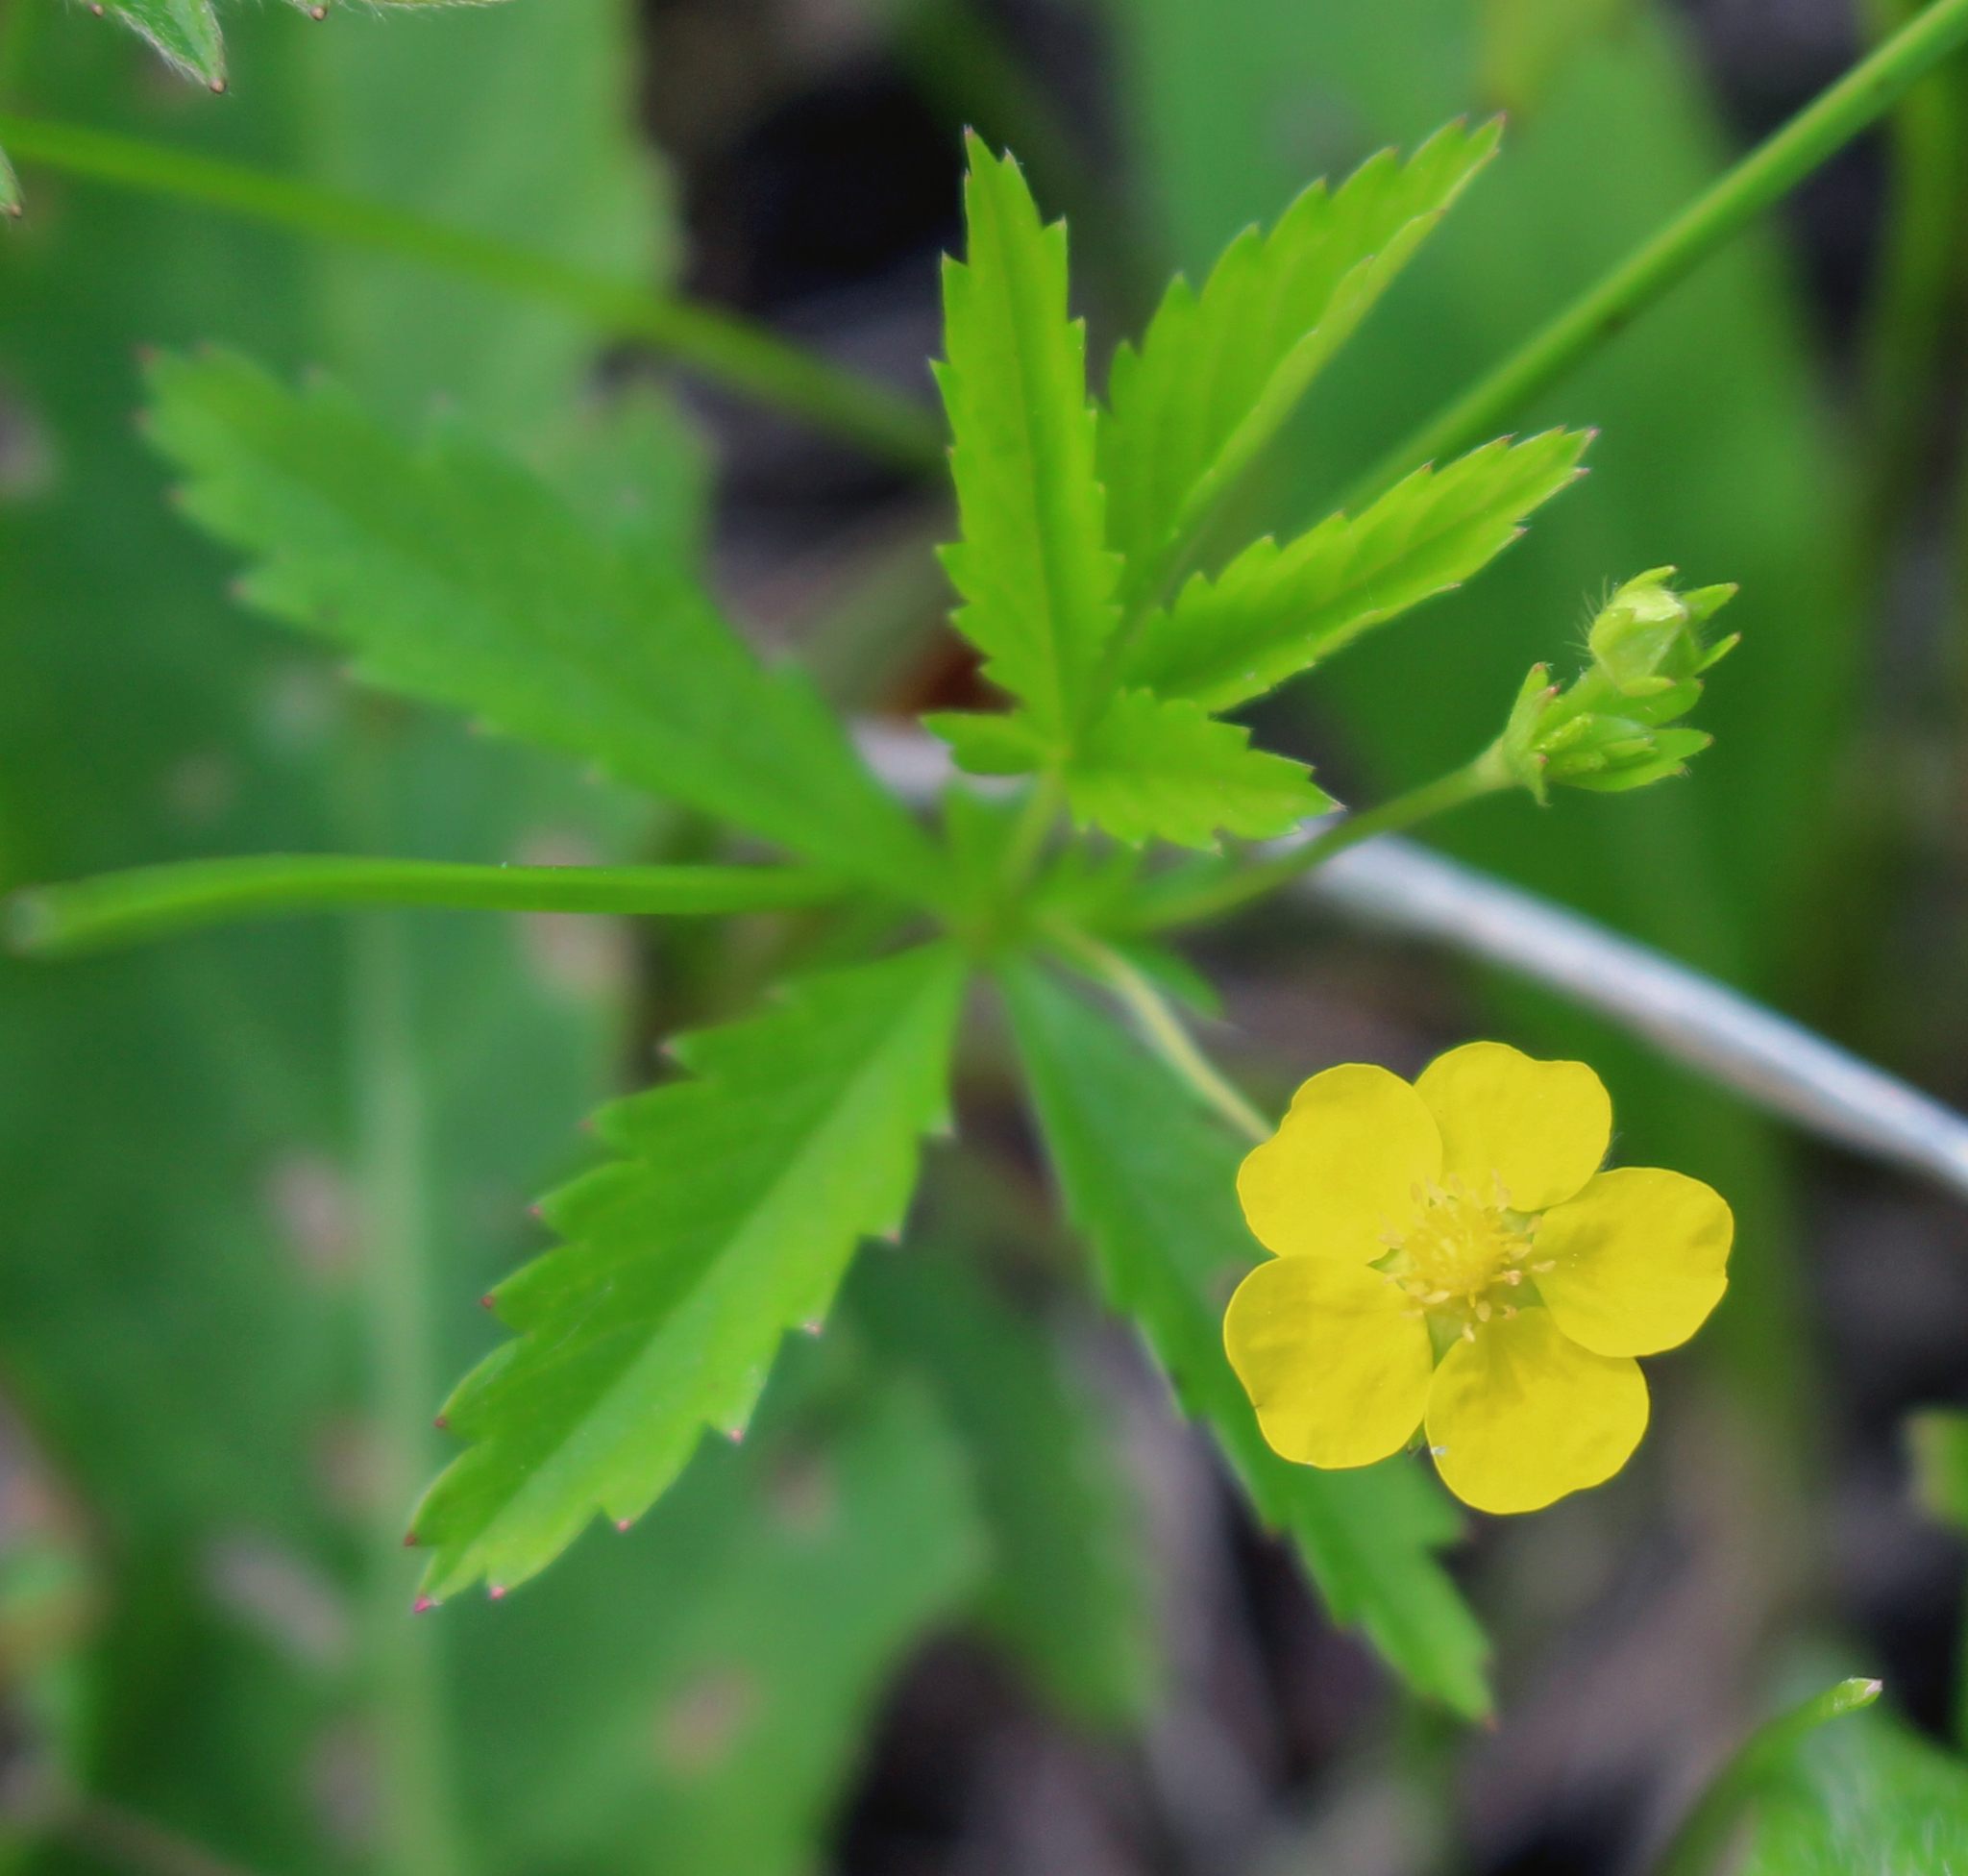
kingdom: Plantae
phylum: Tracheophyta
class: Magnoliopsida
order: Rosales
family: Rosaceae
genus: Potentilla
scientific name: Potentilla simplex
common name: Old field cinquefoil
